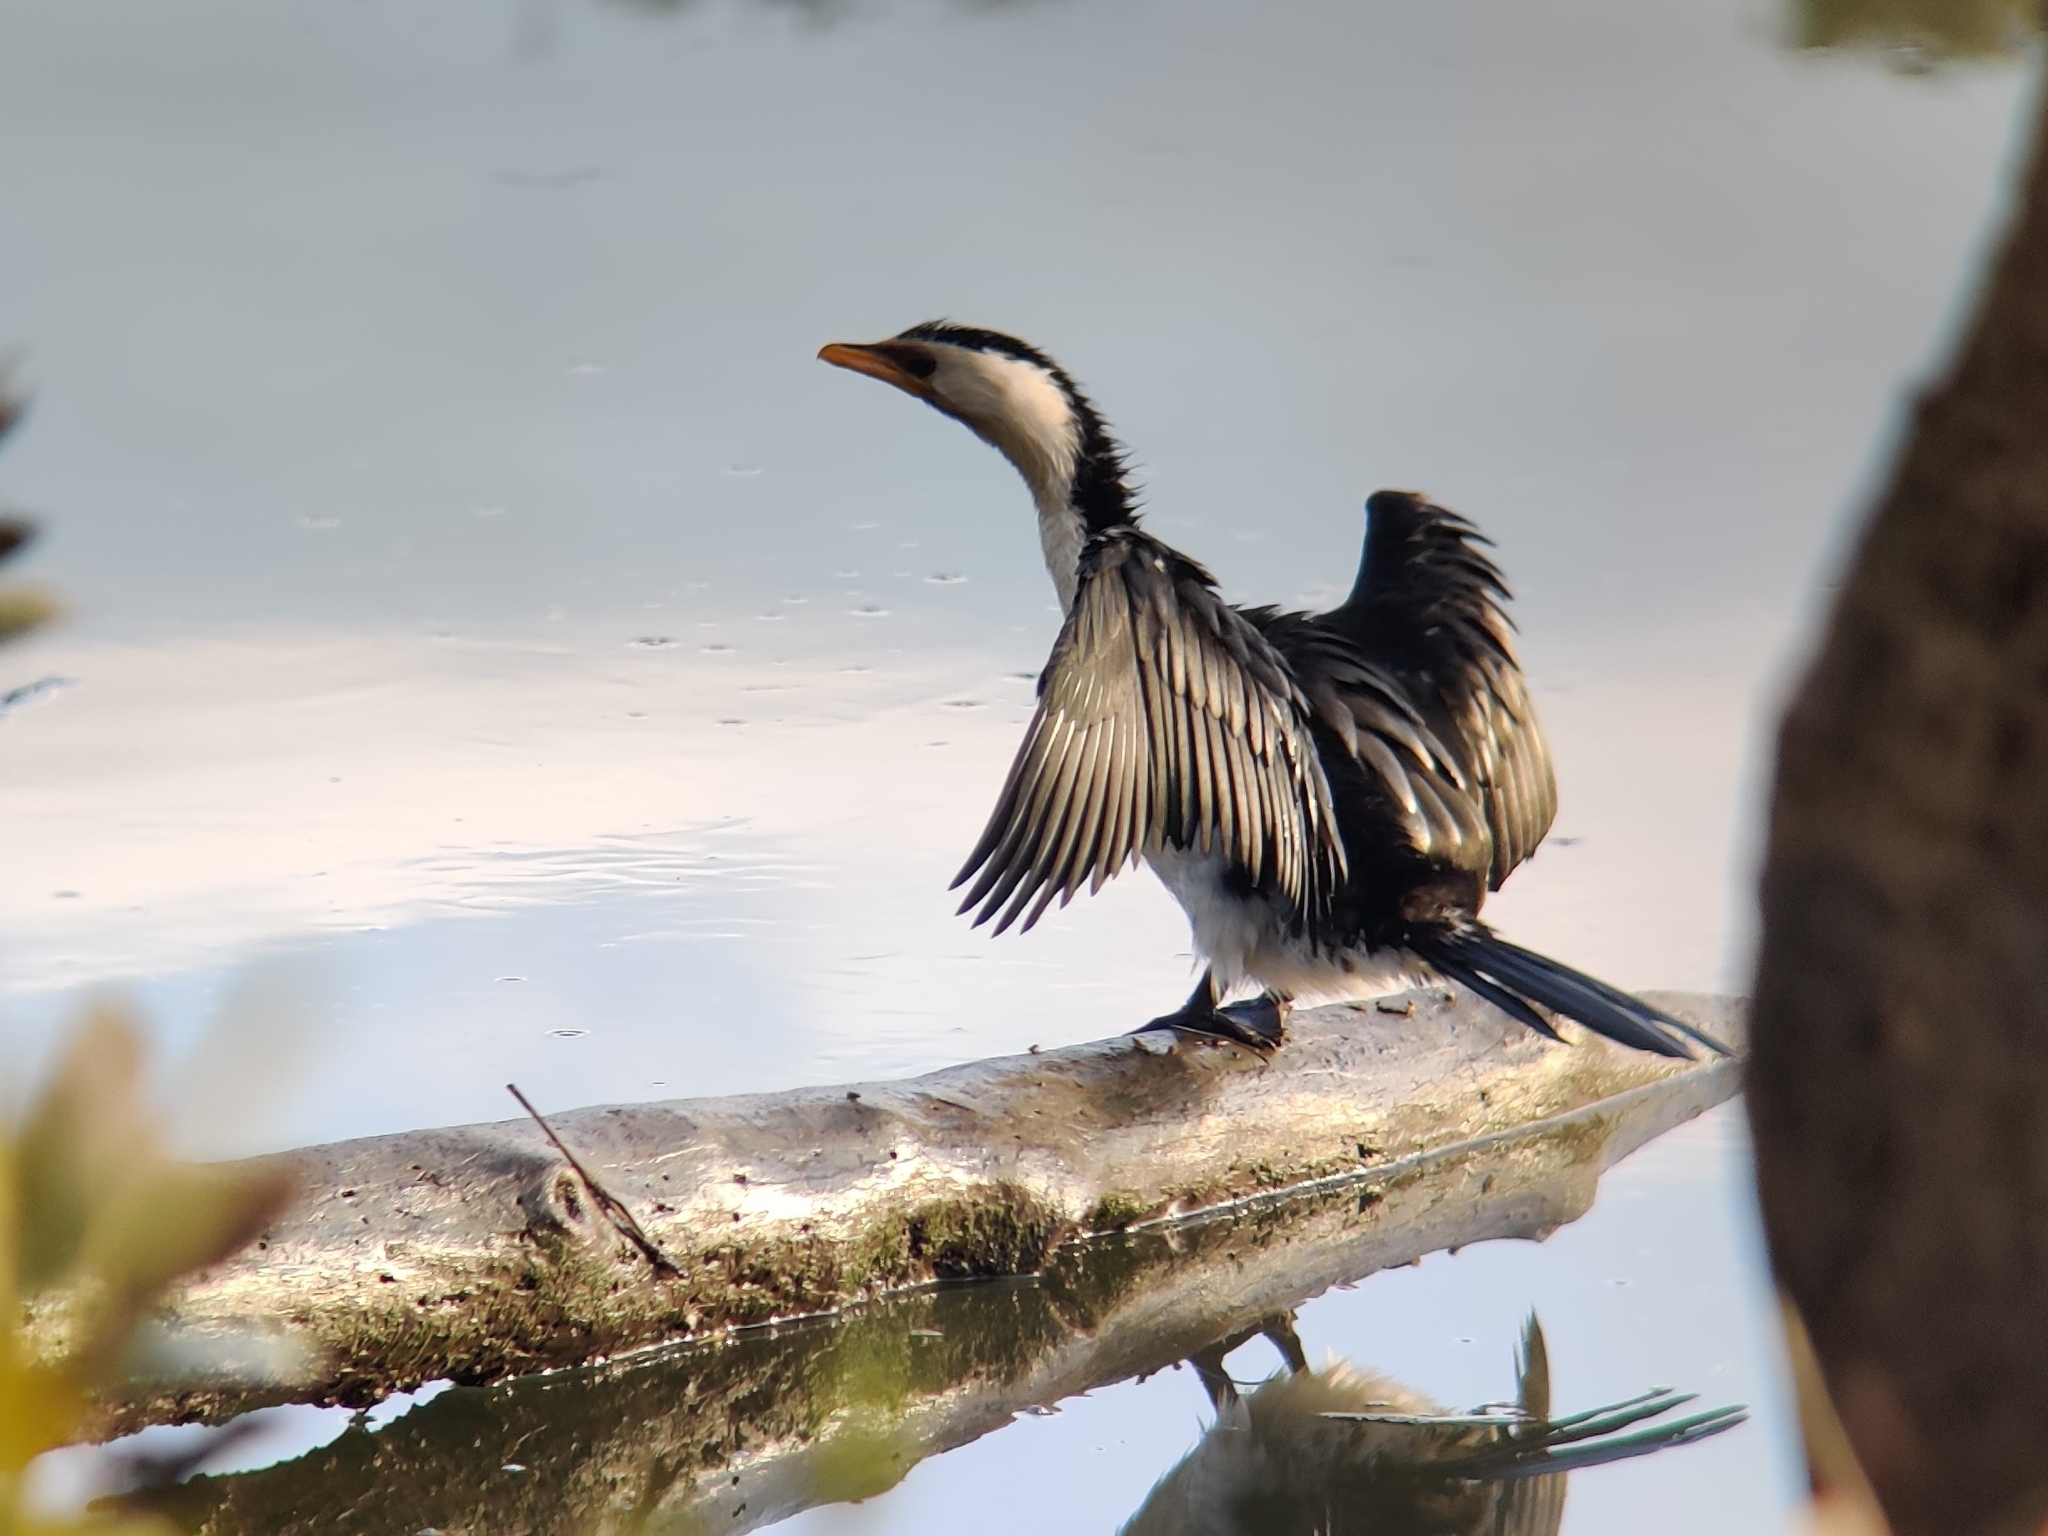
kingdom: Animalia
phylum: Chordata
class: Aves
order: Suliformes
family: Phalacrocoracidae
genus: Microcarbo
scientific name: Microcarbo melanoleucos
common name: Little pied cormorant
